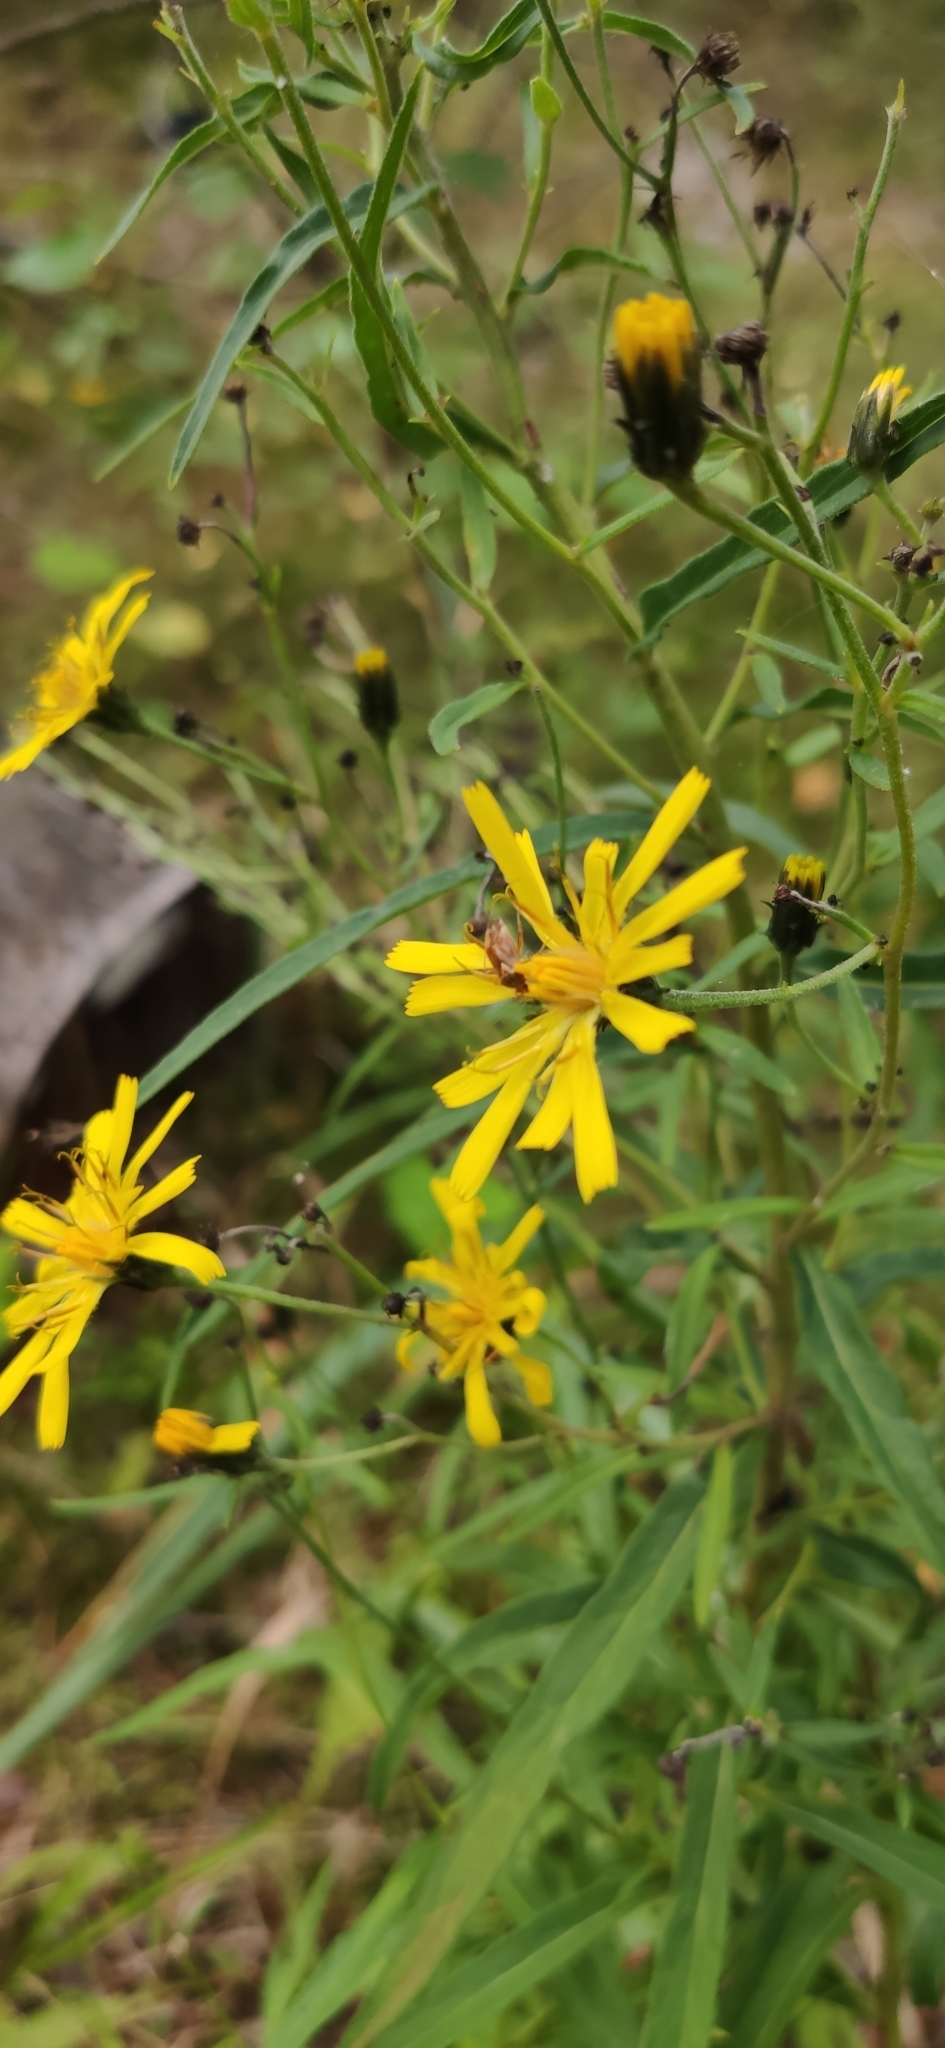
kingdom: Plantae
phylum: Tracheophyta
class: Magnoliopsida
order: Asterales
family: Asteraceae
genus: Hieracium
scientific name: Hieracium umbellatum
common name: Northern hawkweed
